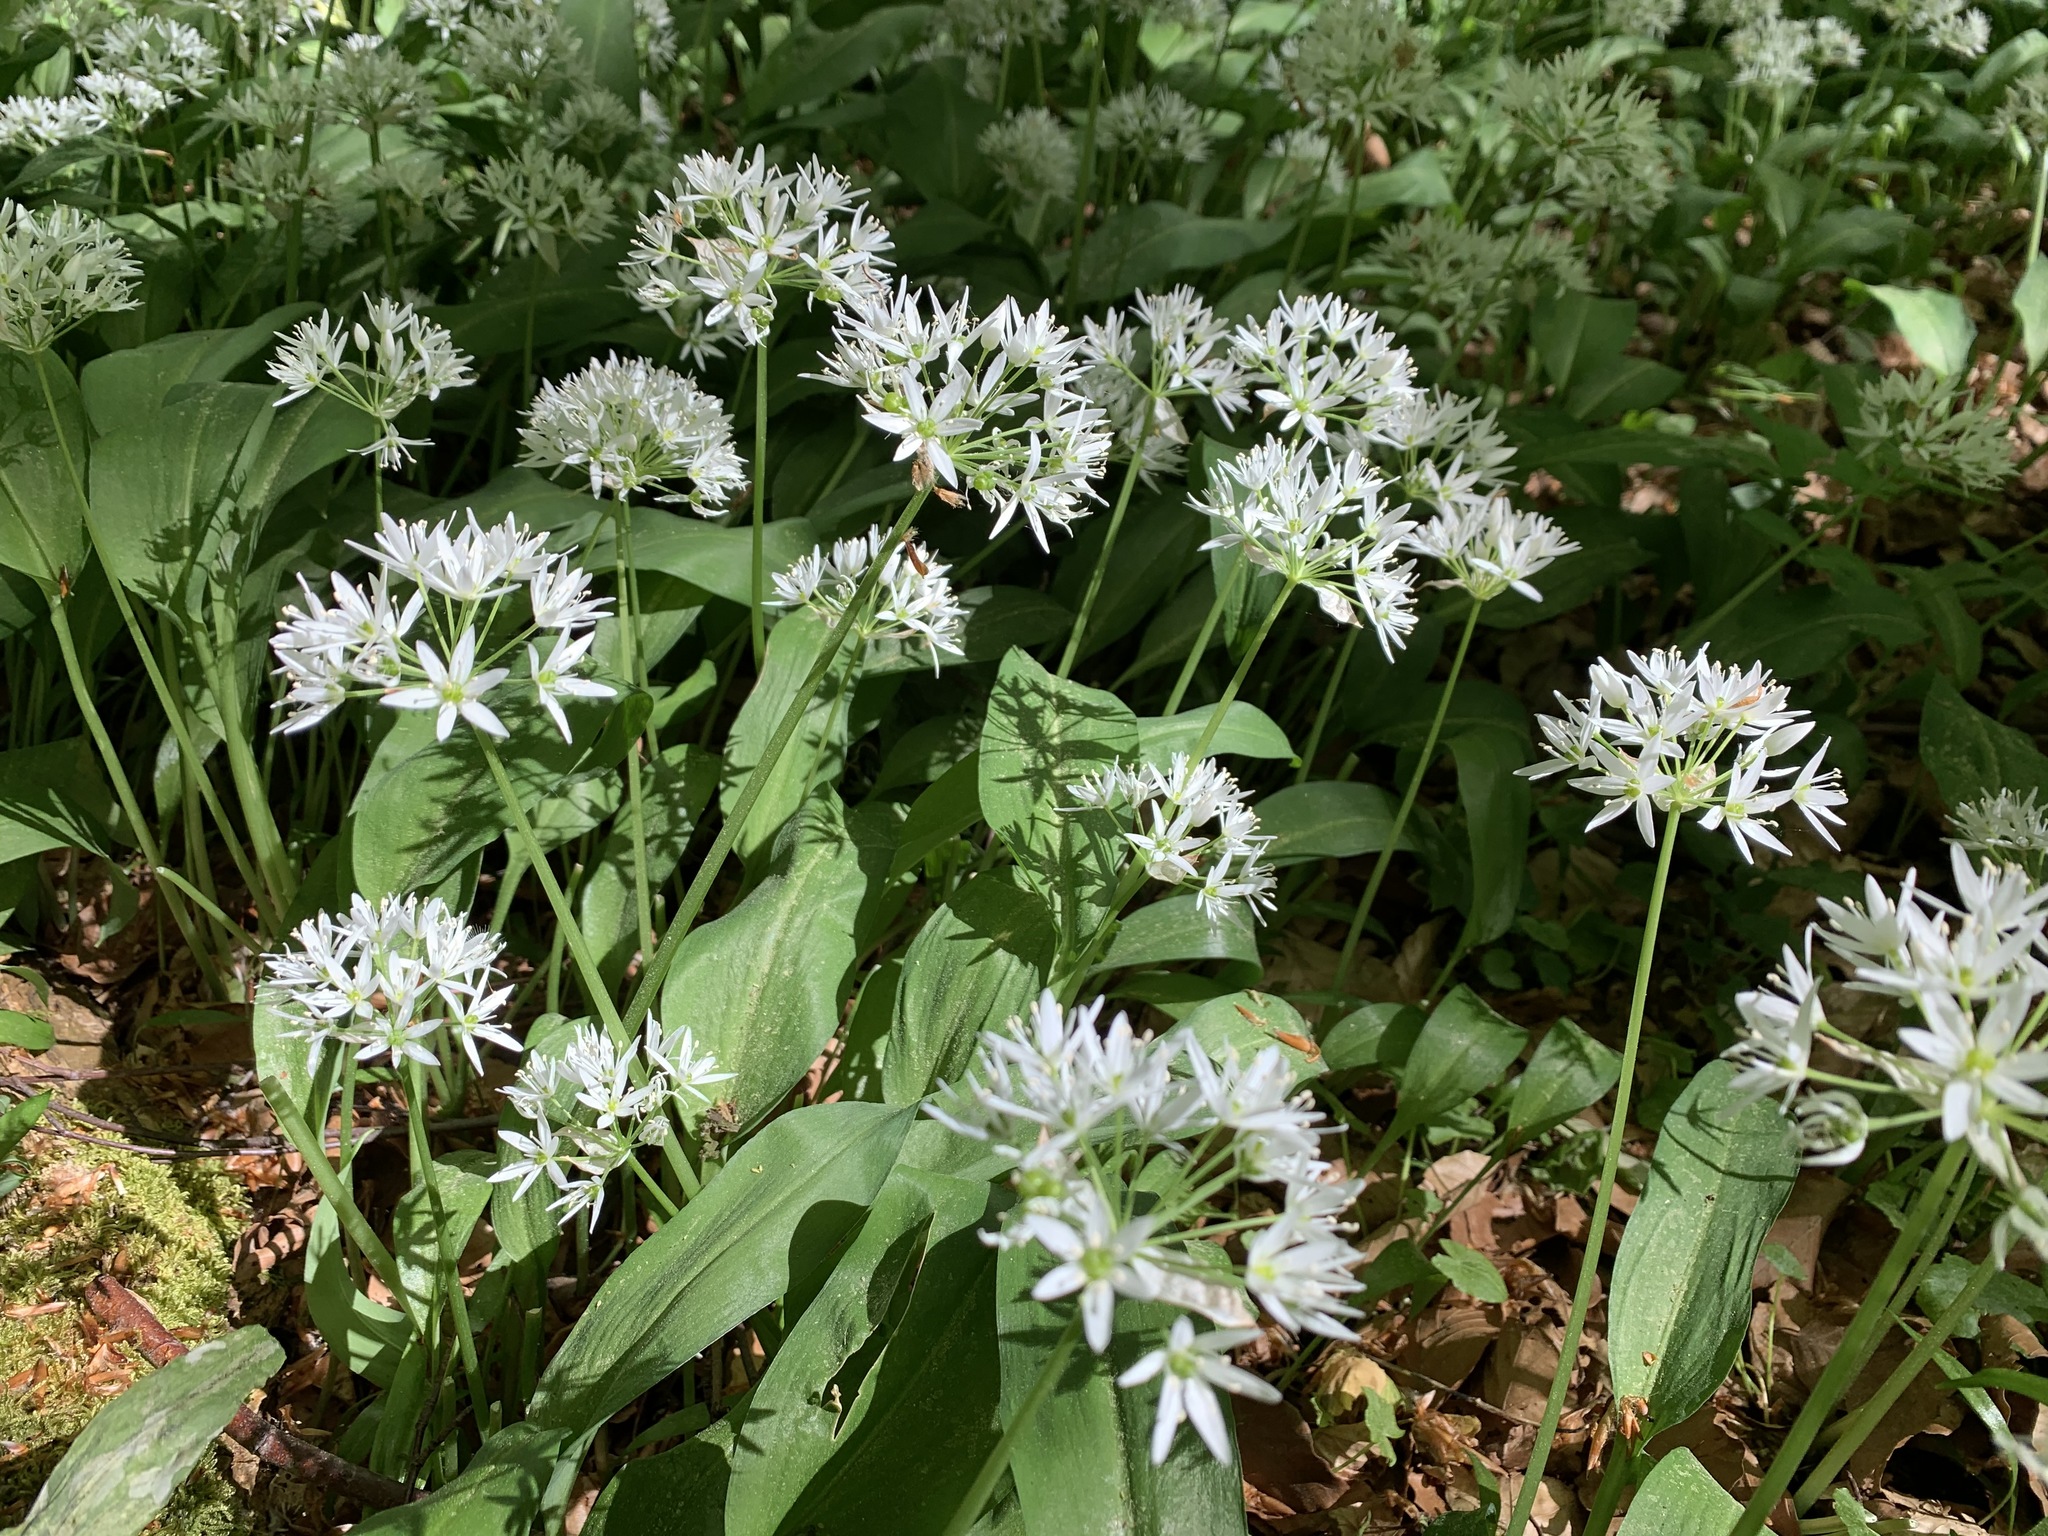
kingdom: Plantae
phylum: Tracheophyta
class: Liliopsida
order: Asparagales
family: Amaryllidaceae
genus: Allium
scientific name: Allium ursinum
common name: Ramsons
